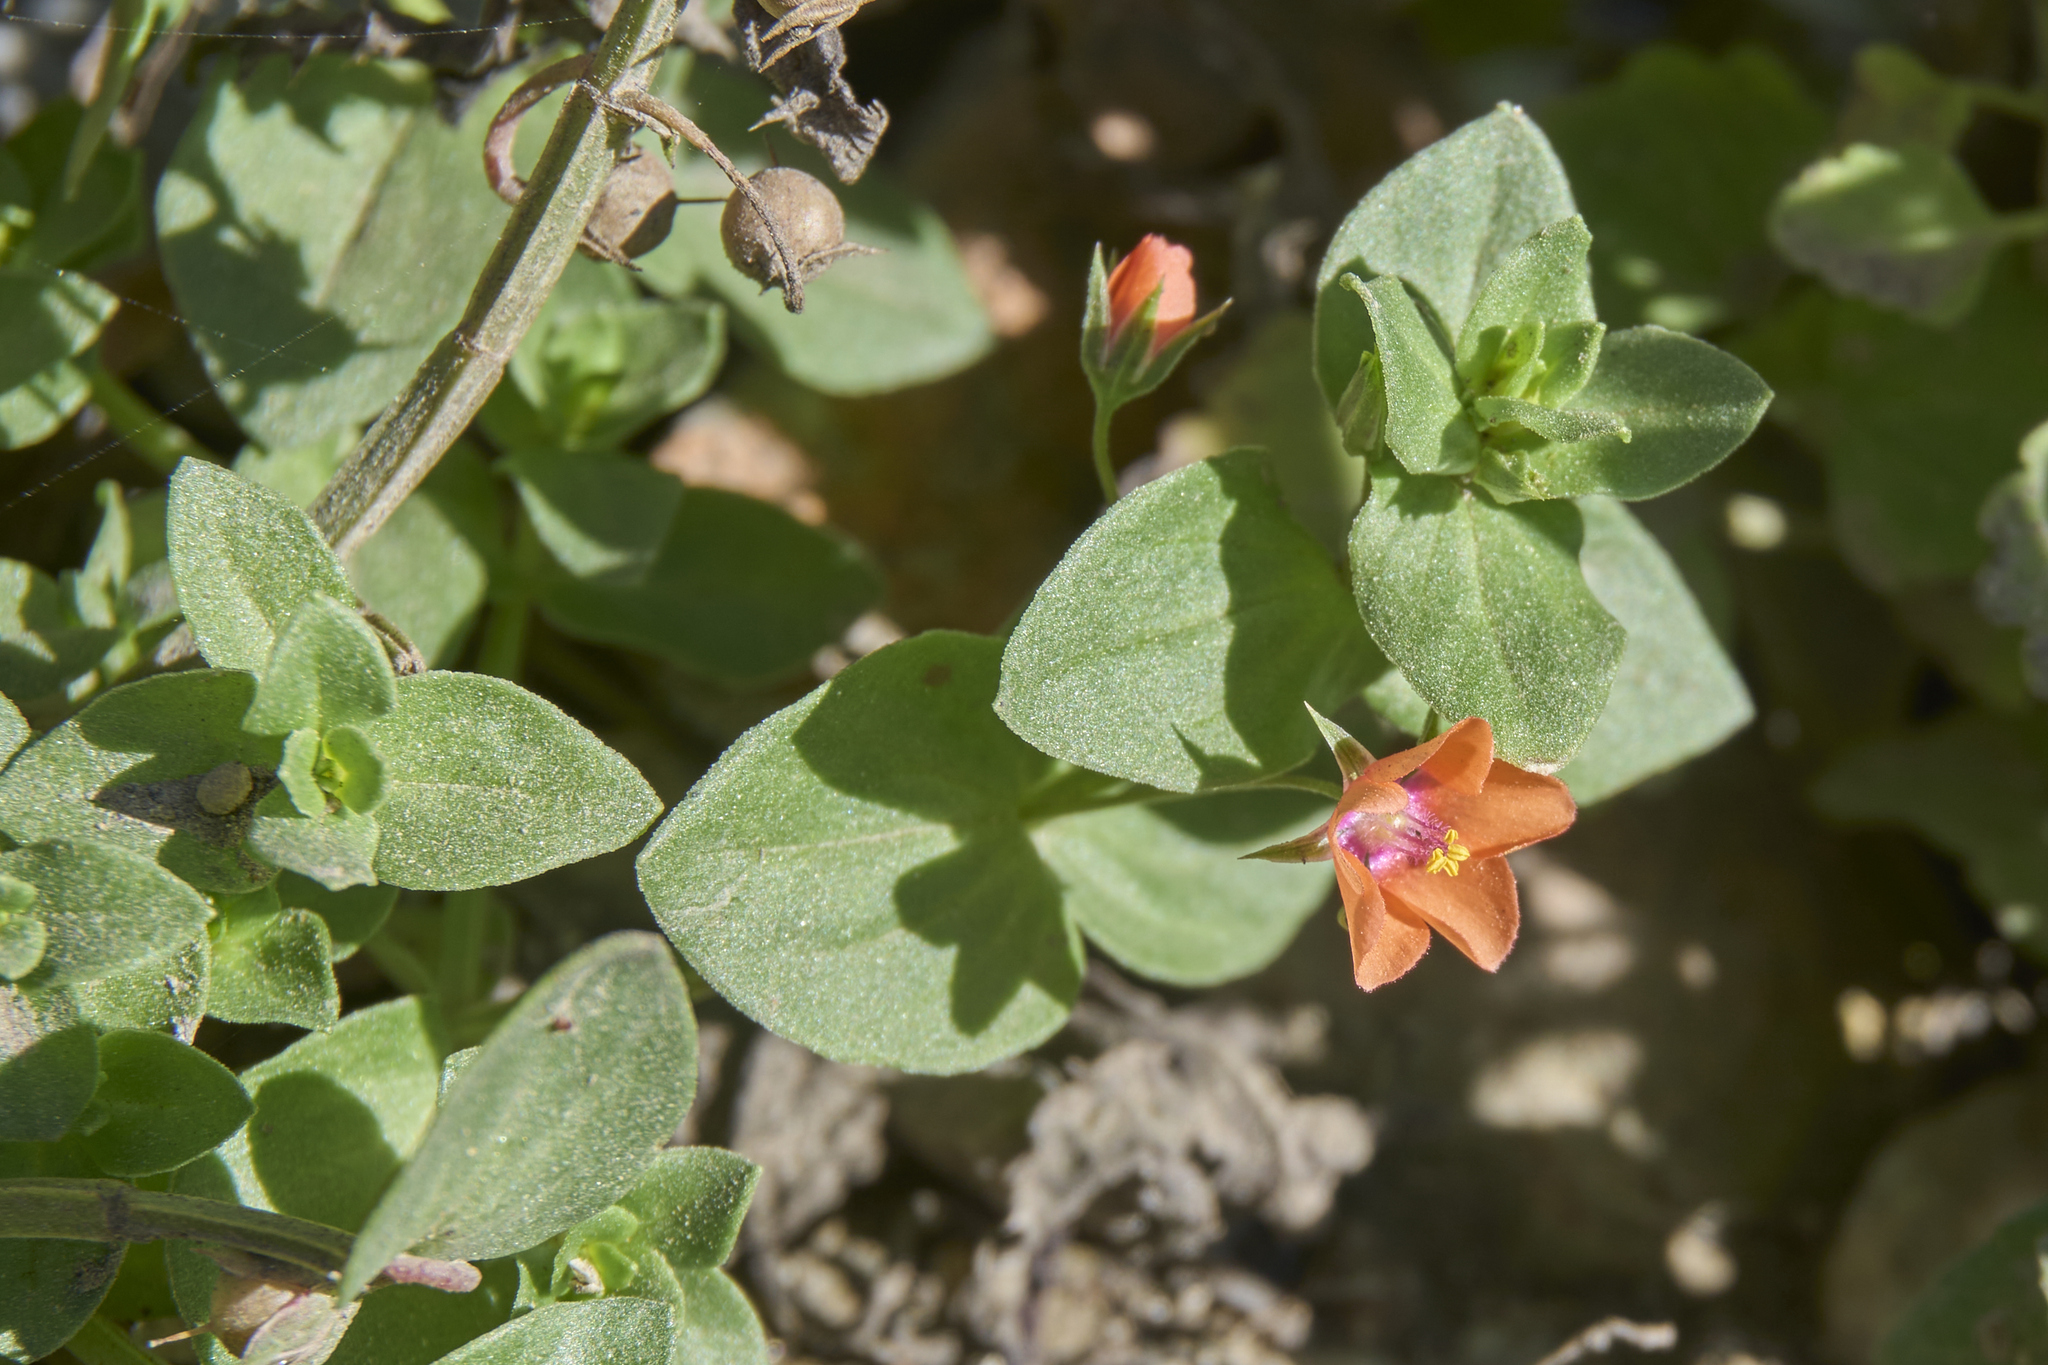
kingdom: Plantae
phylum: Tracheophyta
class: Magnoliopsida
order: Ericales
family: Primulaceae
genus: Lysimachia
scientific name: Lysimachia arvensis
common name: Scarlet pimpernel
